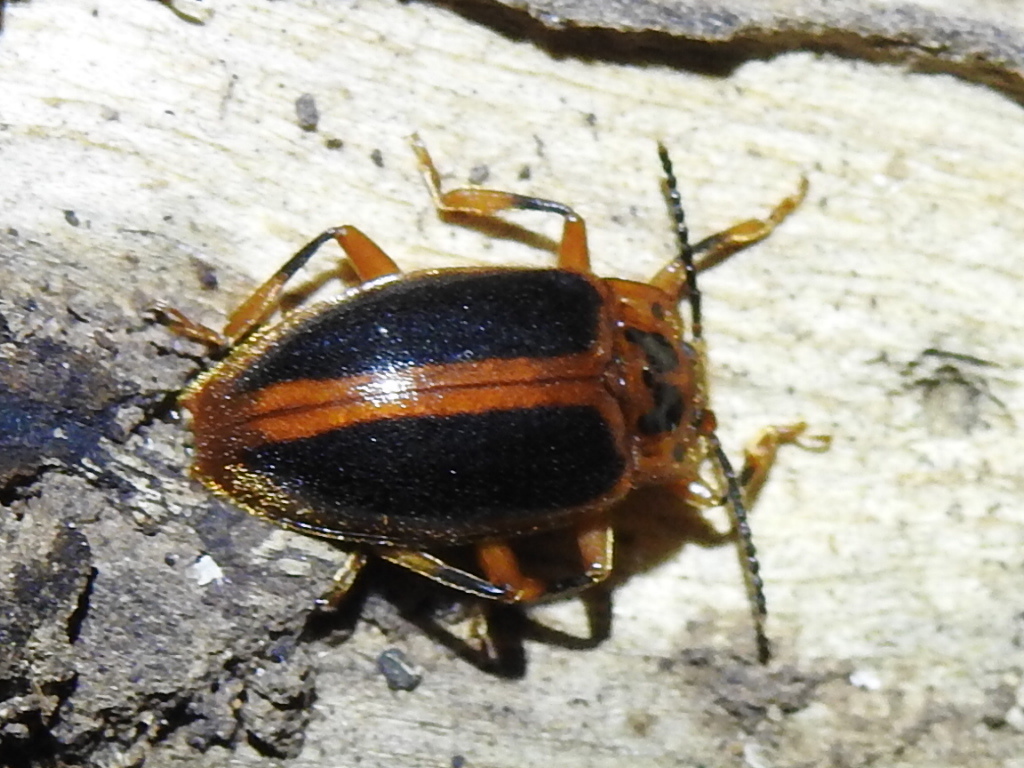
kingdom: Animalia
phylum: Arthropoda
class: Insecta
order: Coleoptera
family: Endomychidae
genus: Epipocus
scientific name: Epipocus cinctus
